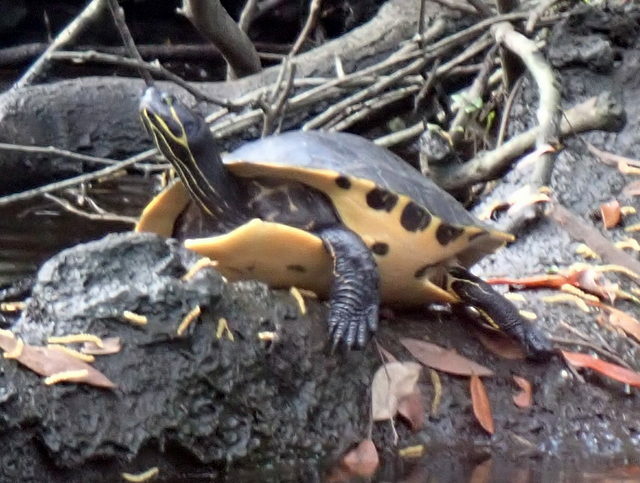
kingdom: Animalia
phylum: Chordata
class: Testudines
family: Emydidae
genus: Pseudemys
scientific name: Pseudemys concinna
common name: Eastern river cooter
